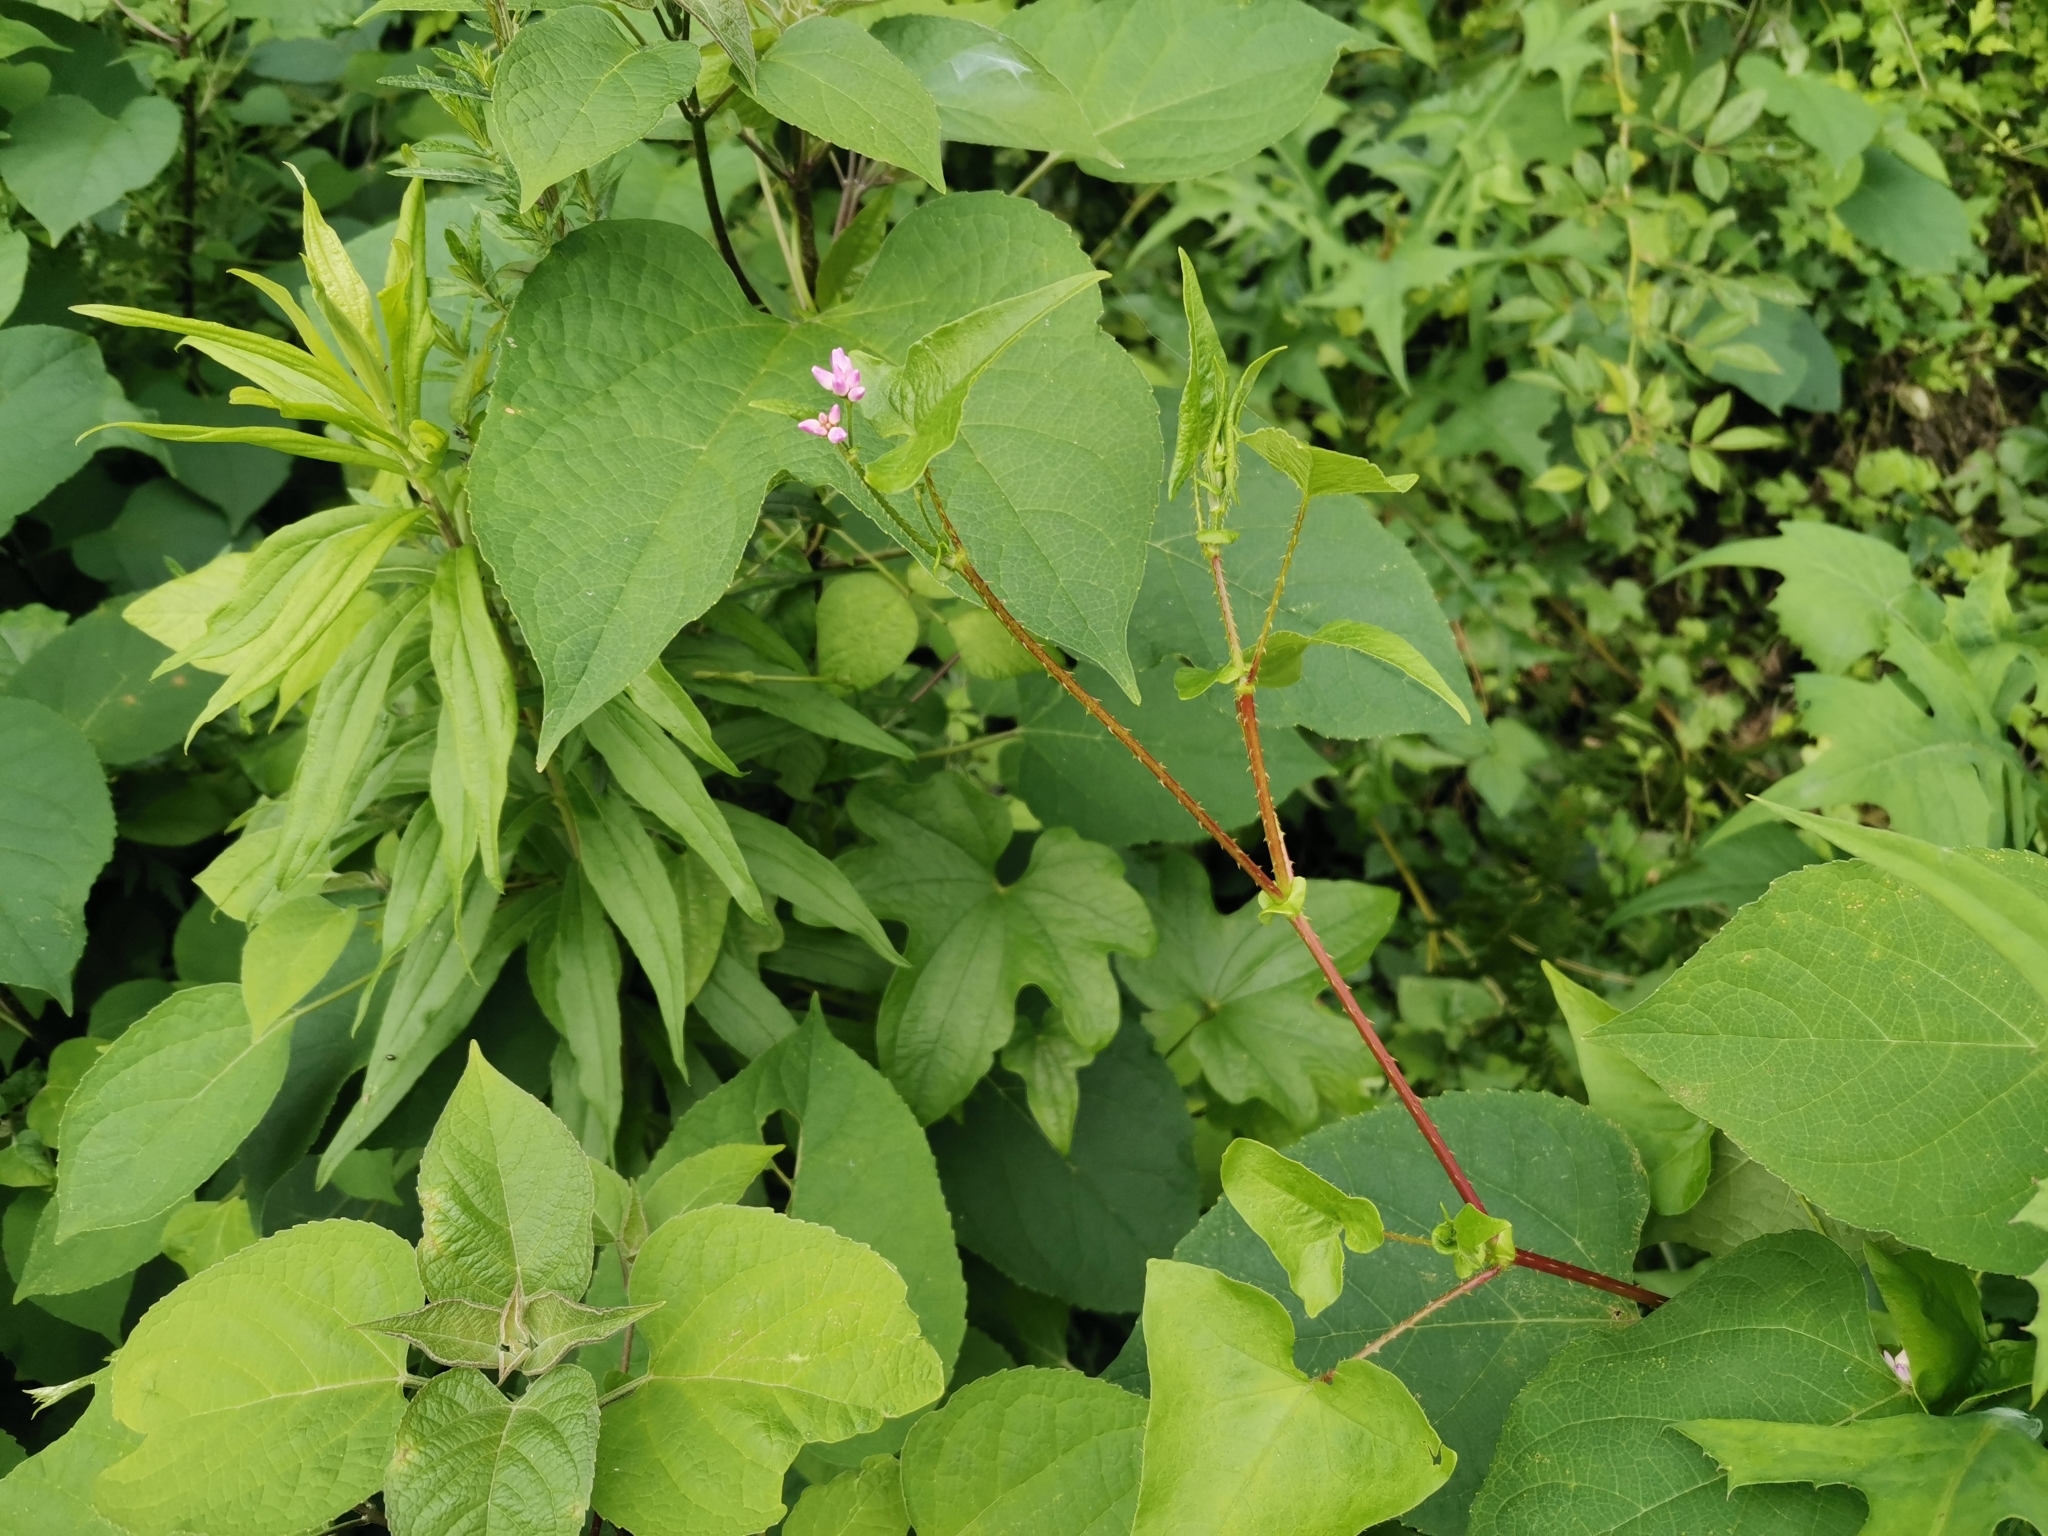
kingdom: Plantae
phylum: Tracheophyta
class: Magnoliopsida
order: Caryophyllales
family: Polygonaceae
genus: Persicaria
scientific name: Persicaria senticosa
